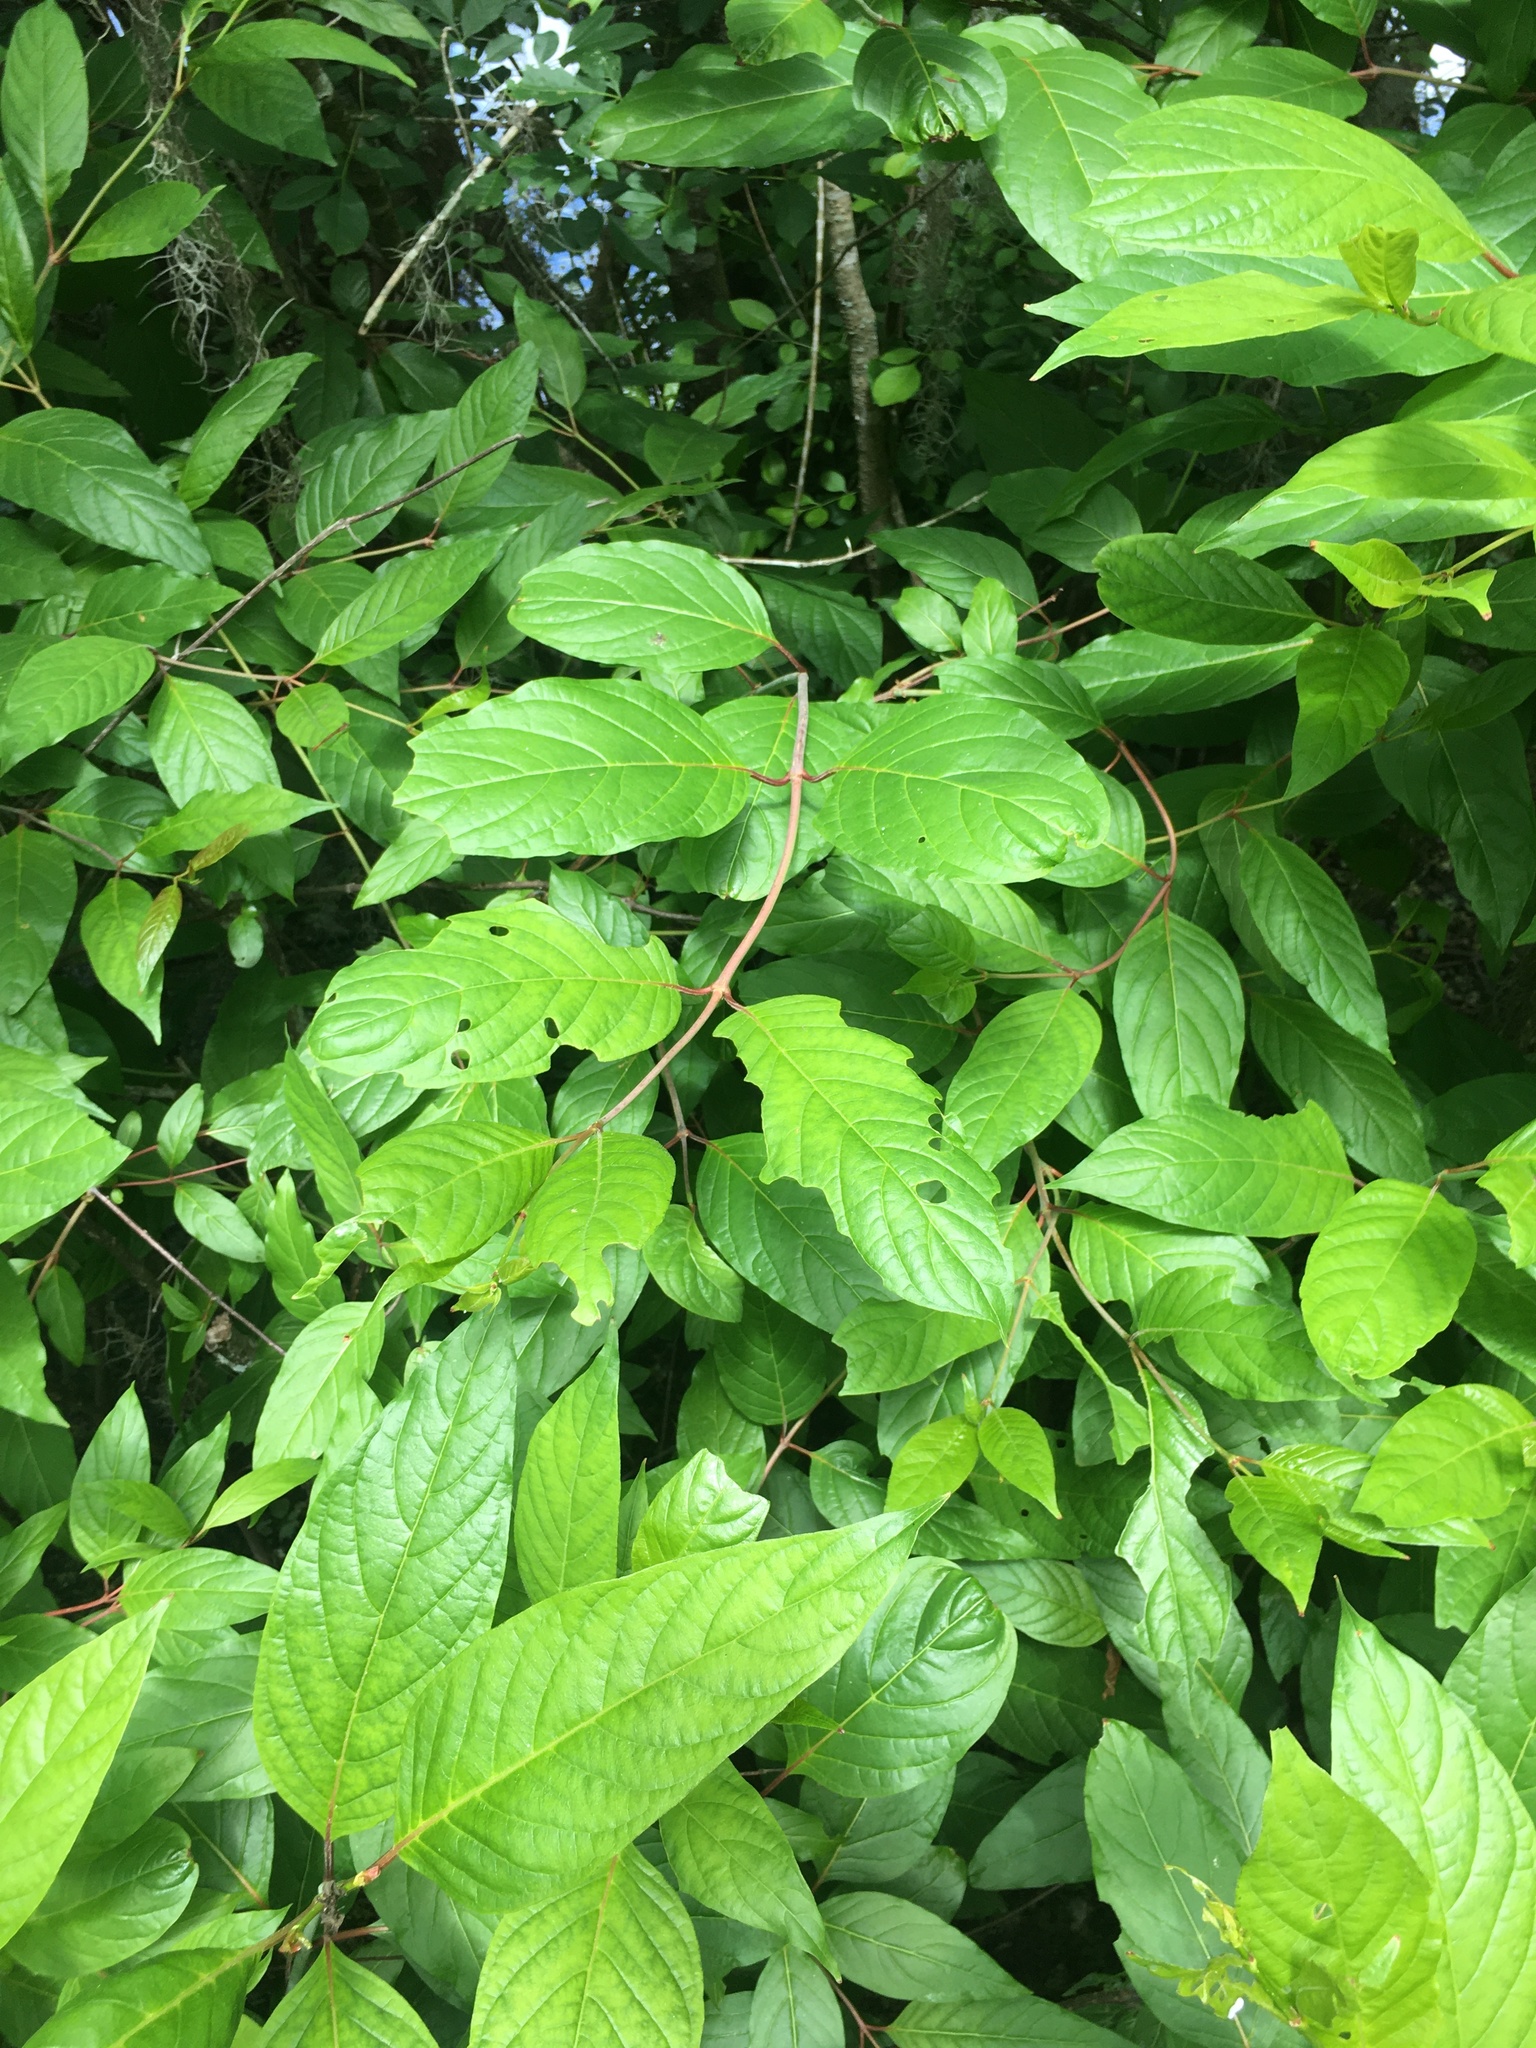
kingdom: Plantae
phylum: Tracheophyta
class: Magnoliopsida
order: Gentianales
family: Rubiaceae
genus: Cephalanthus
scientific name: Cephalanthus occidentalis
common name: Button-willow
